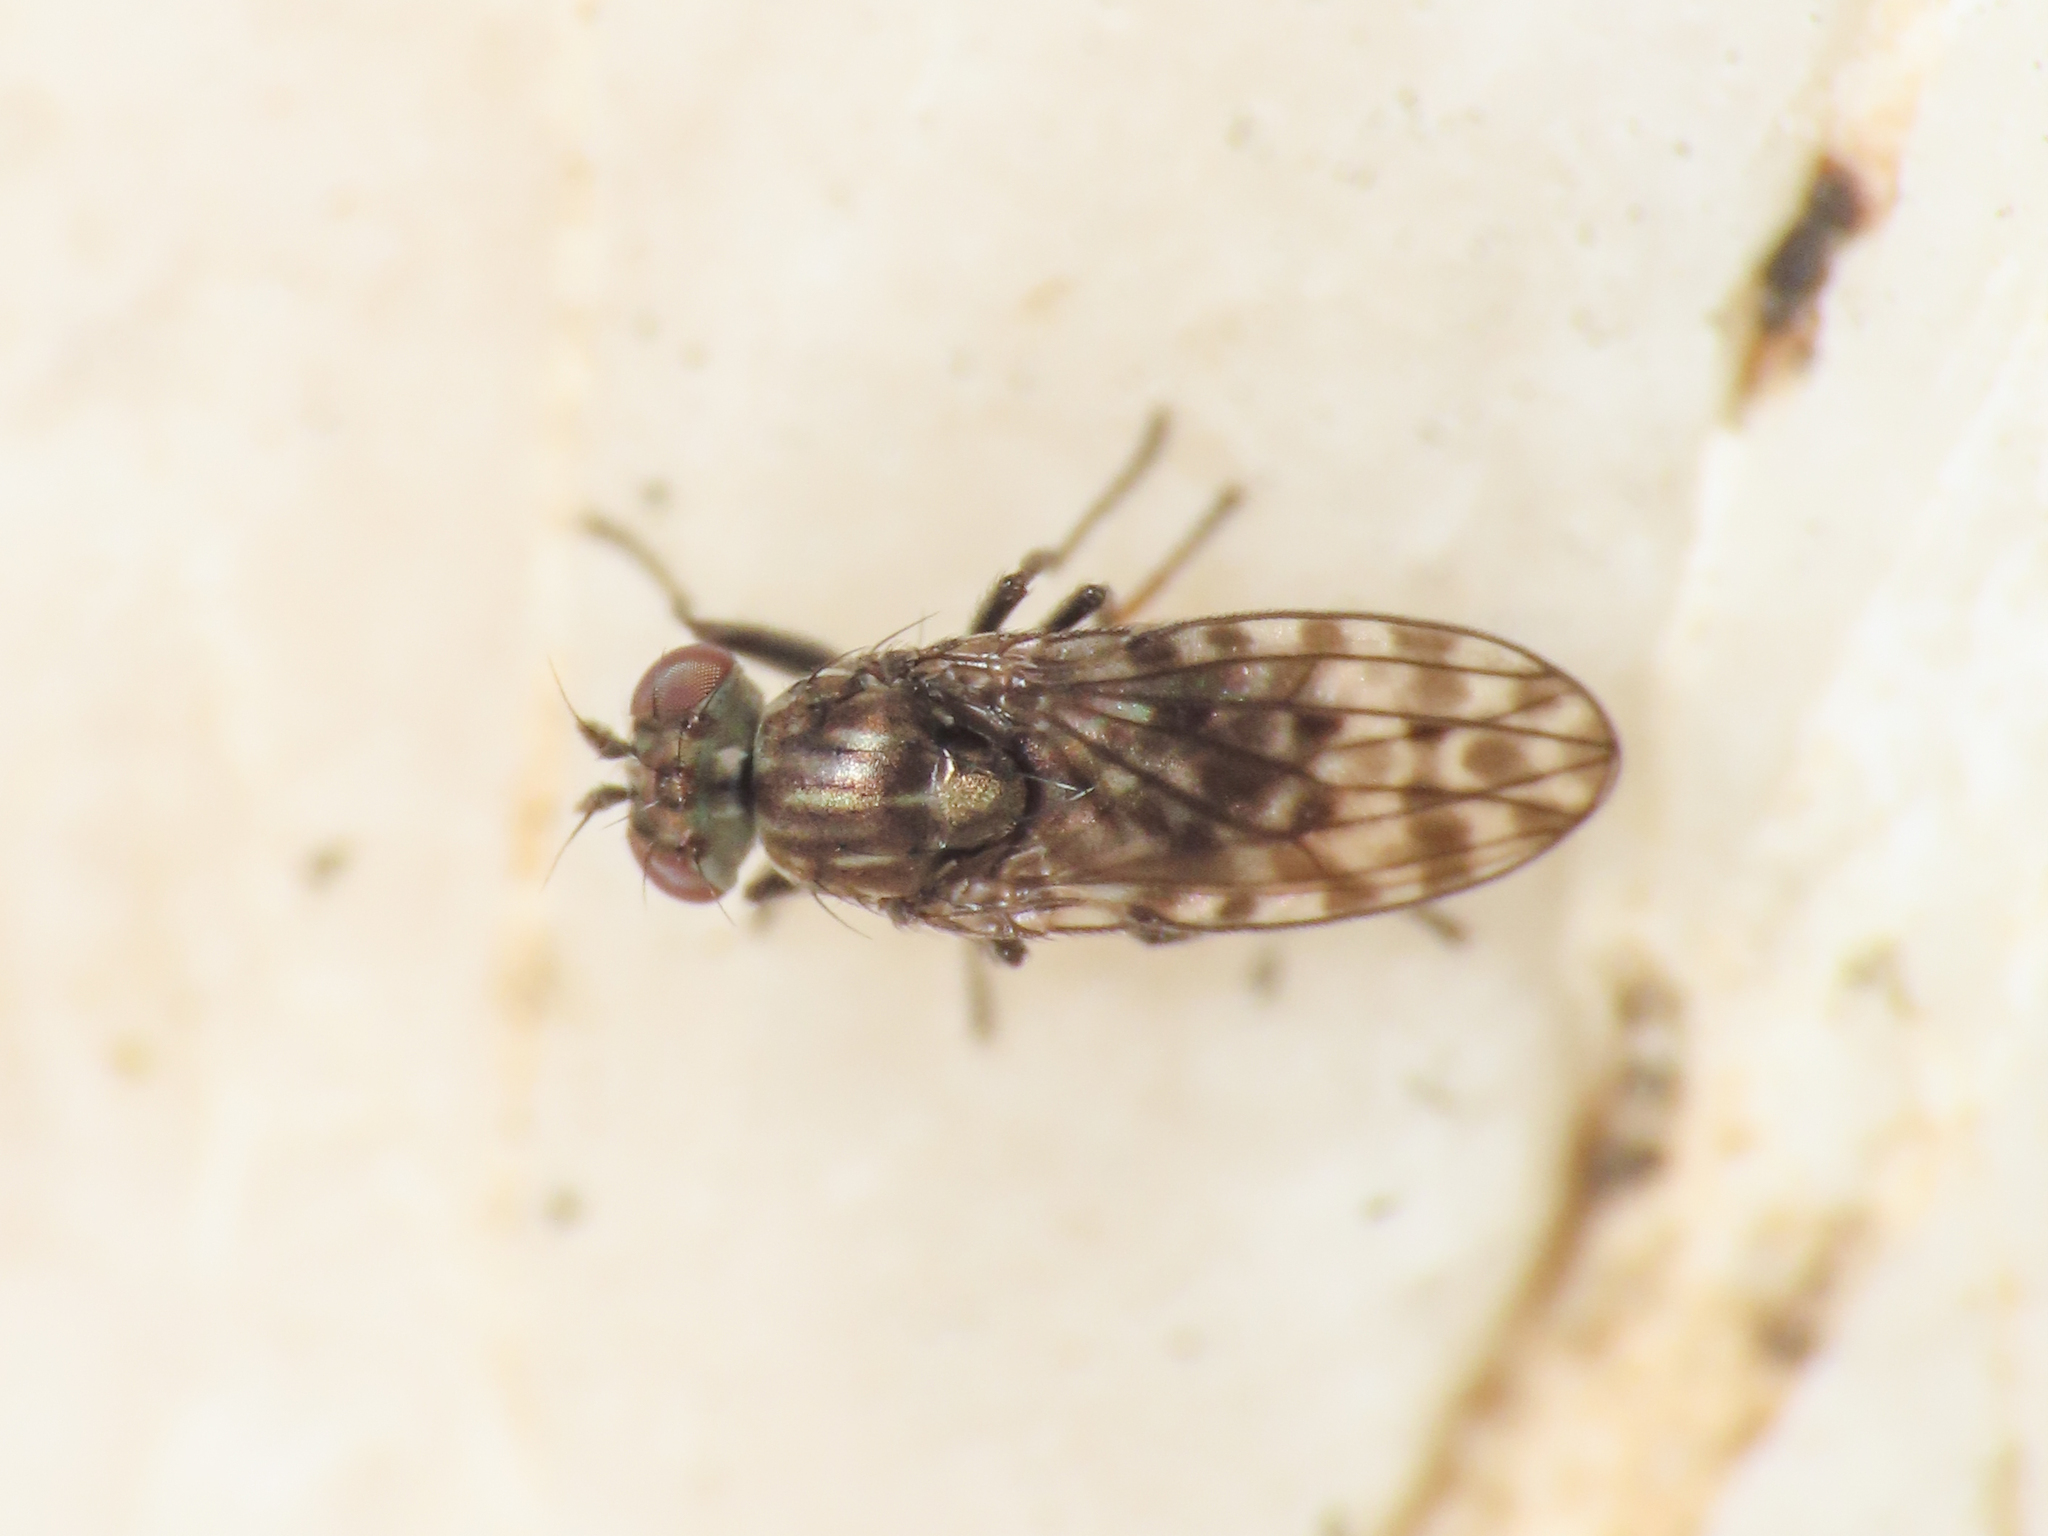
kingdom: Animalia
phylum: Arthropoda
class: Insecta
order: Diptera
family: Ephydridae
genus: Limnellia
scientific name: Limnellia quadrata
